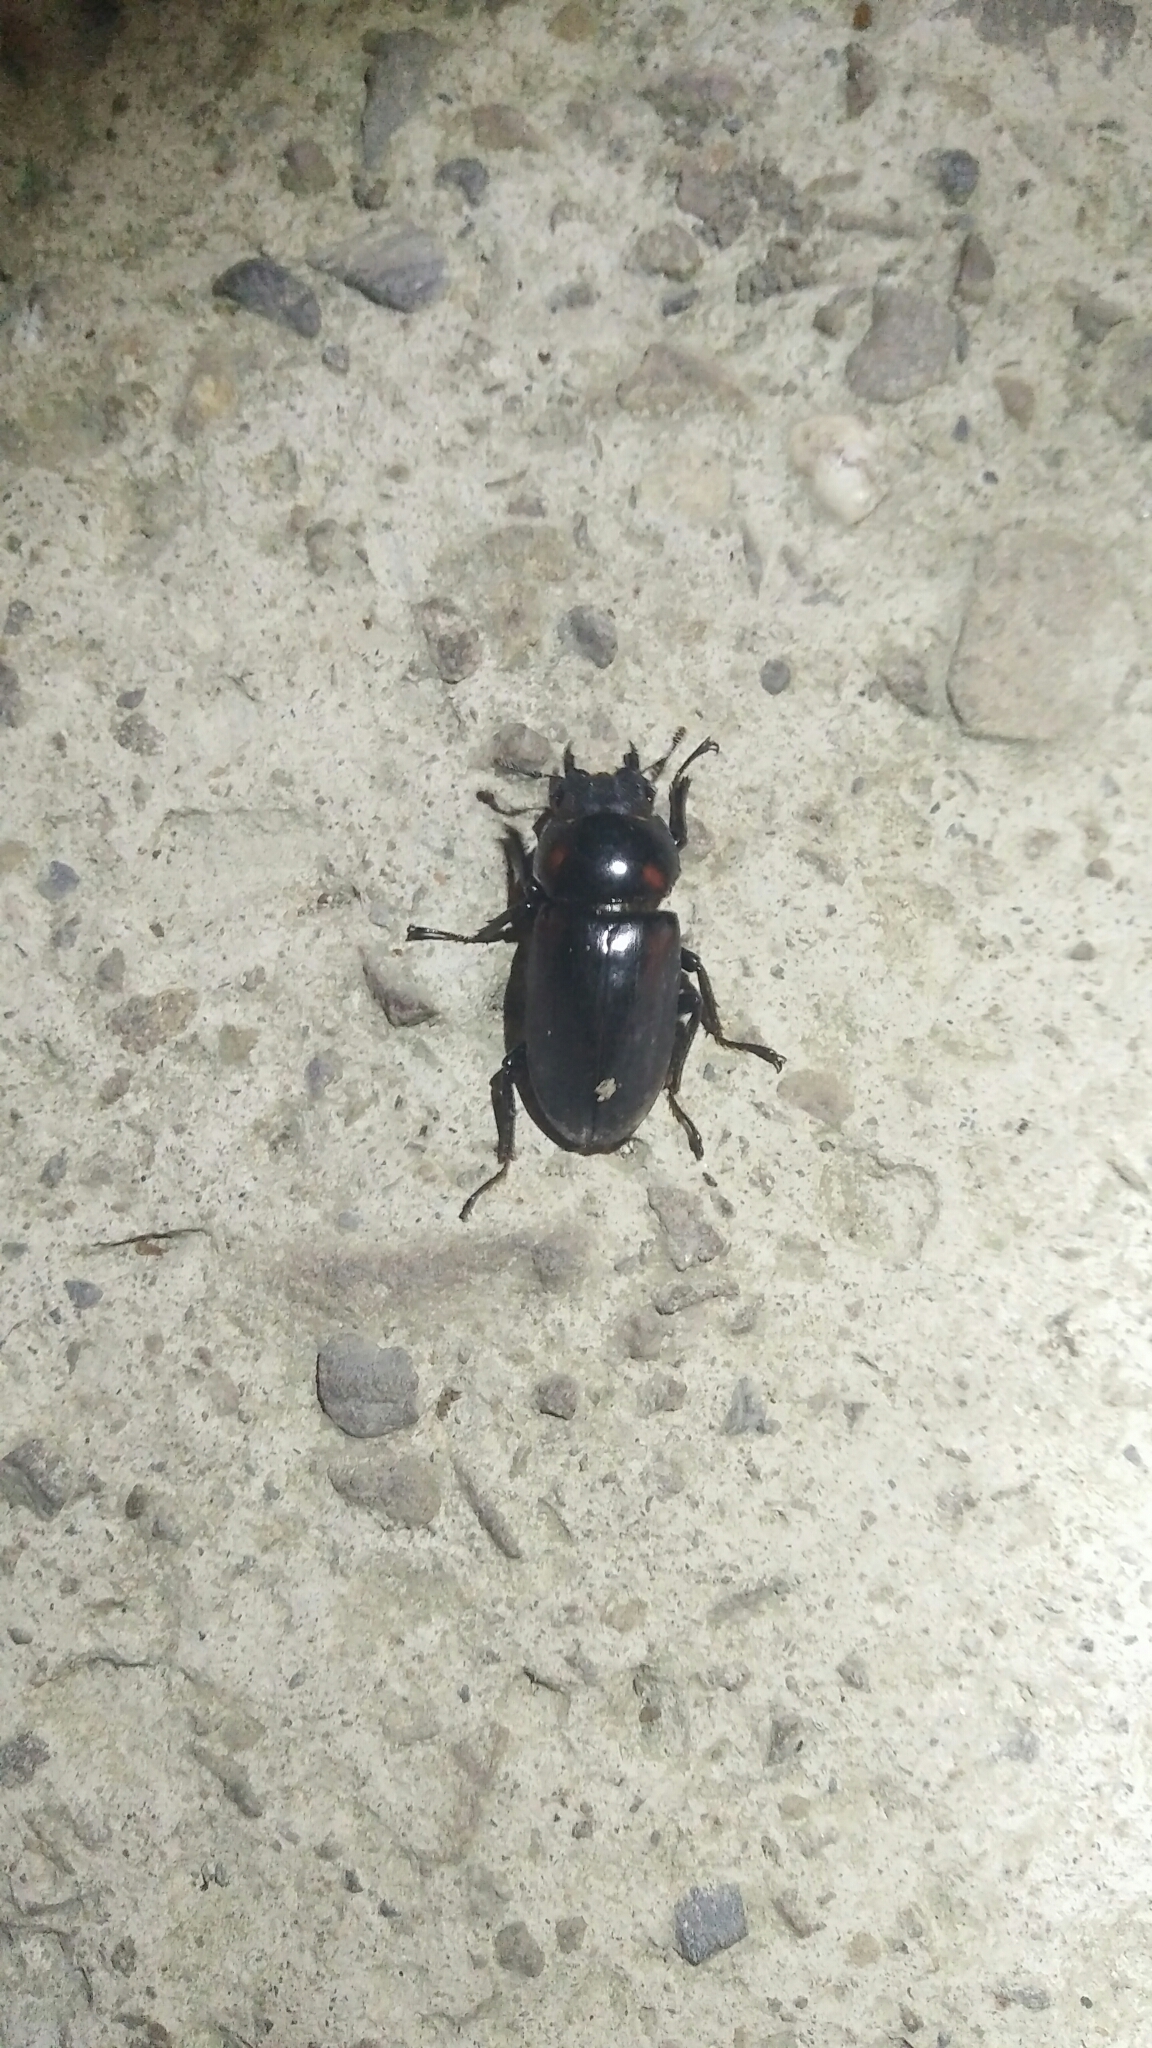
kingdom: Animalia
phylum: Arthropoda
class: Insecta
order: Coleoptera
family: Lucanidae
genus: Dorcus
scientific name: Dorcus rubrofemoratus
